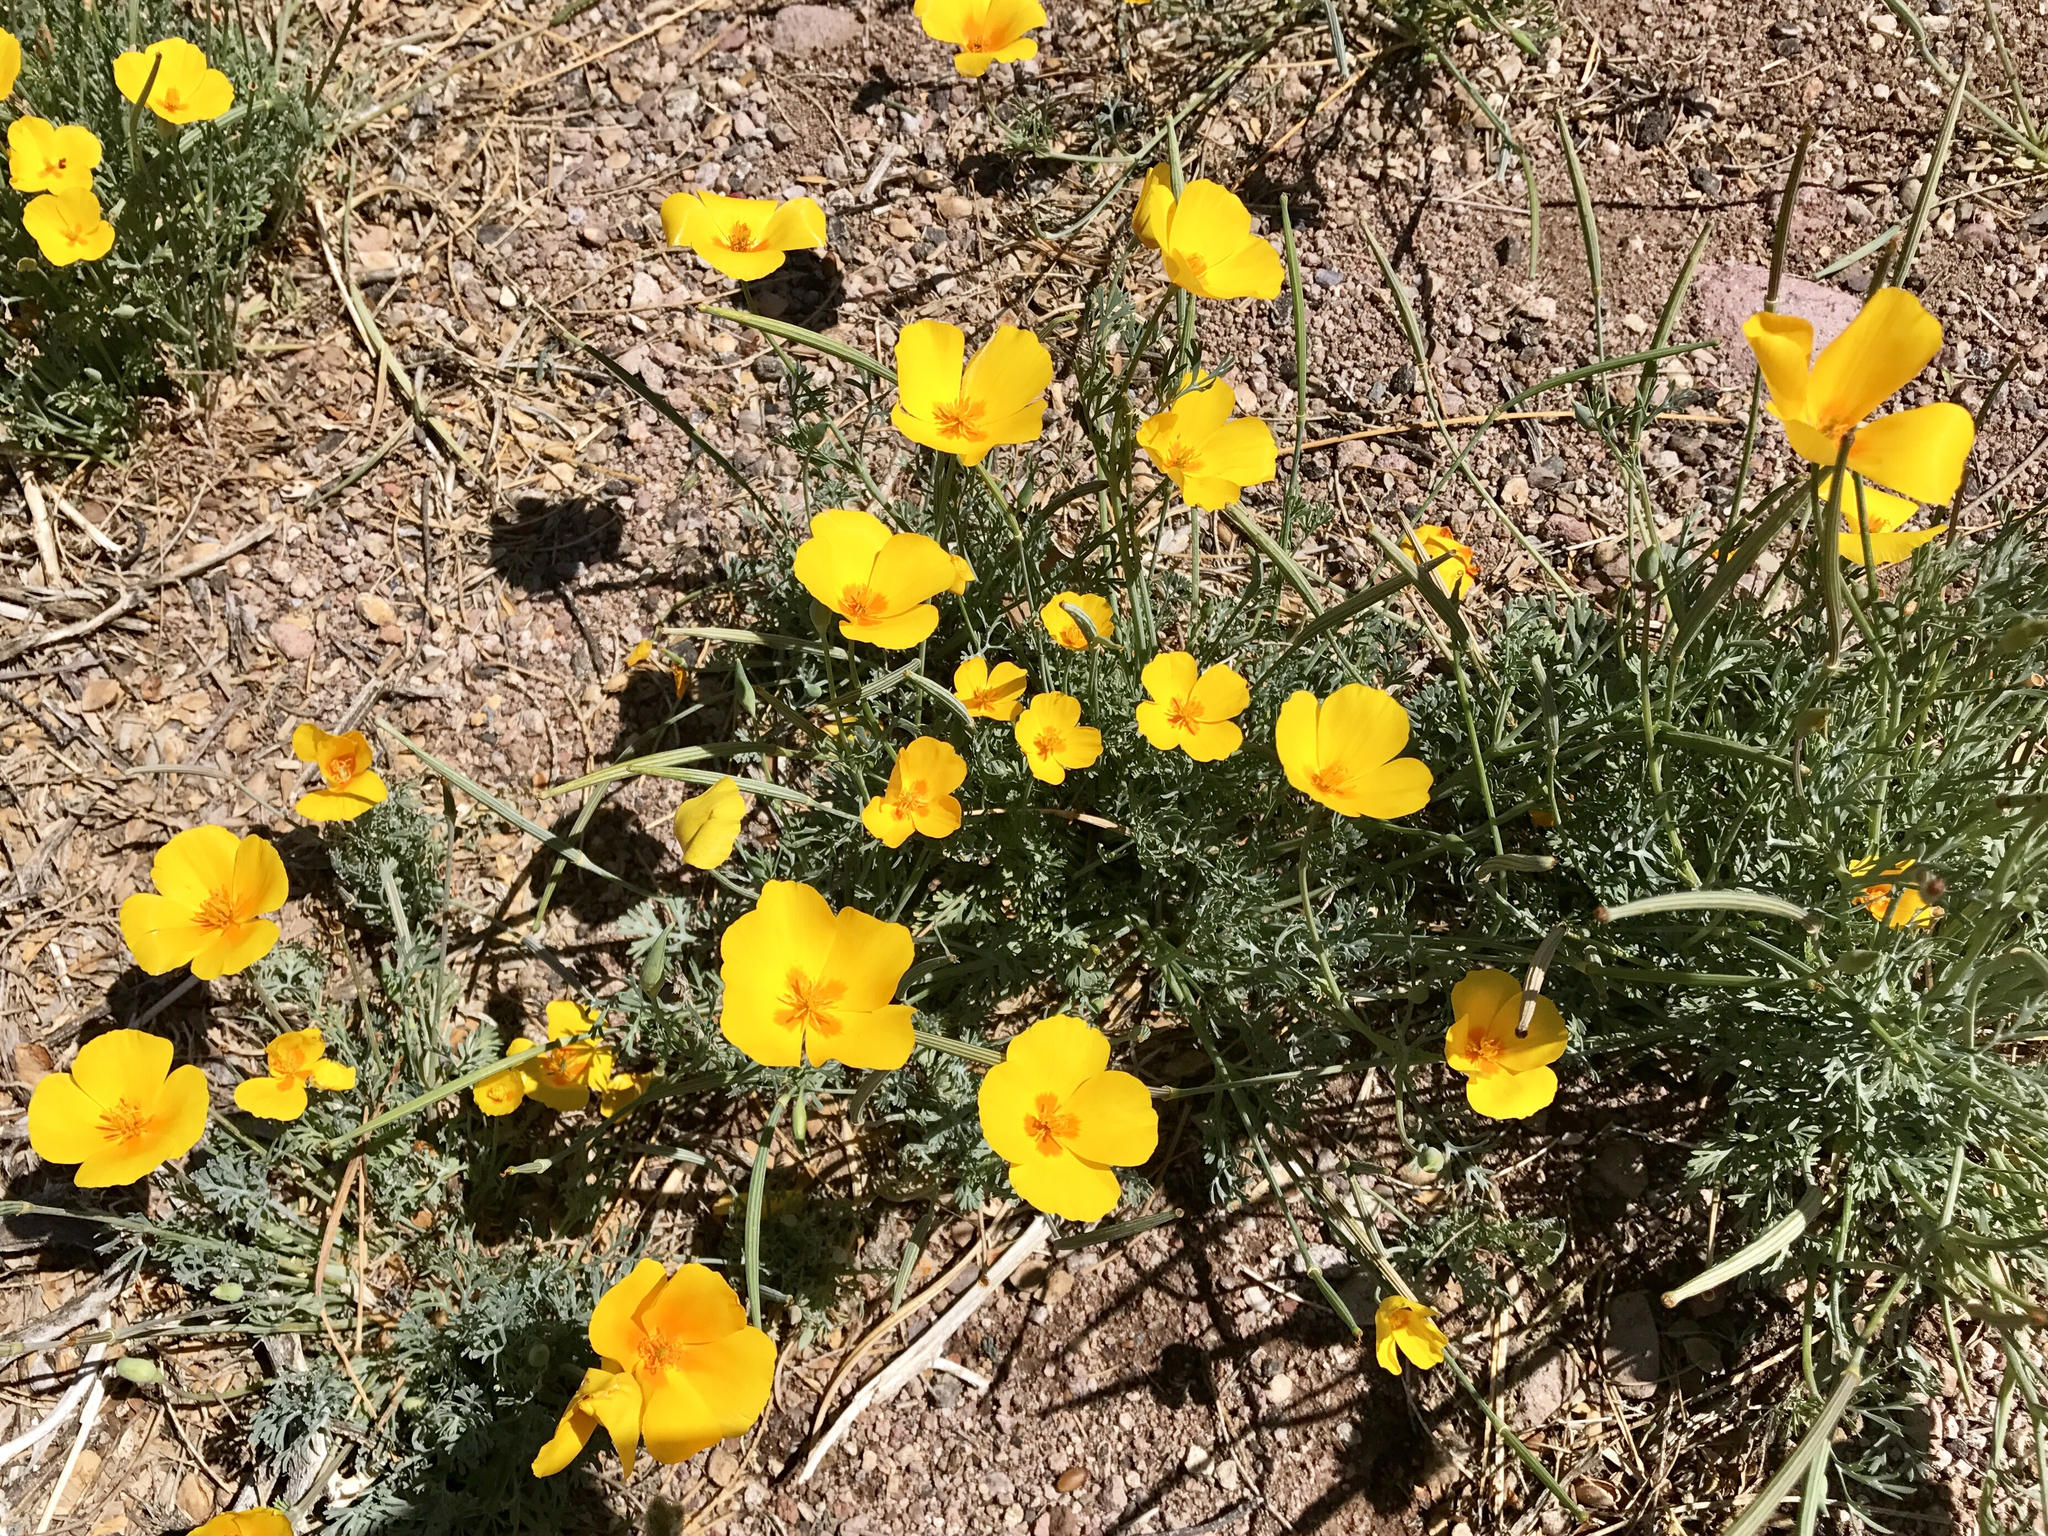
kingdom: Plantae
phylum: Tracheophyta
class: Magnoliopsida
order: Ranunculales
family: Papaveraceae
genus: Eschscholzia
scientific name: Eschscholzia californica
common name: California poppy
